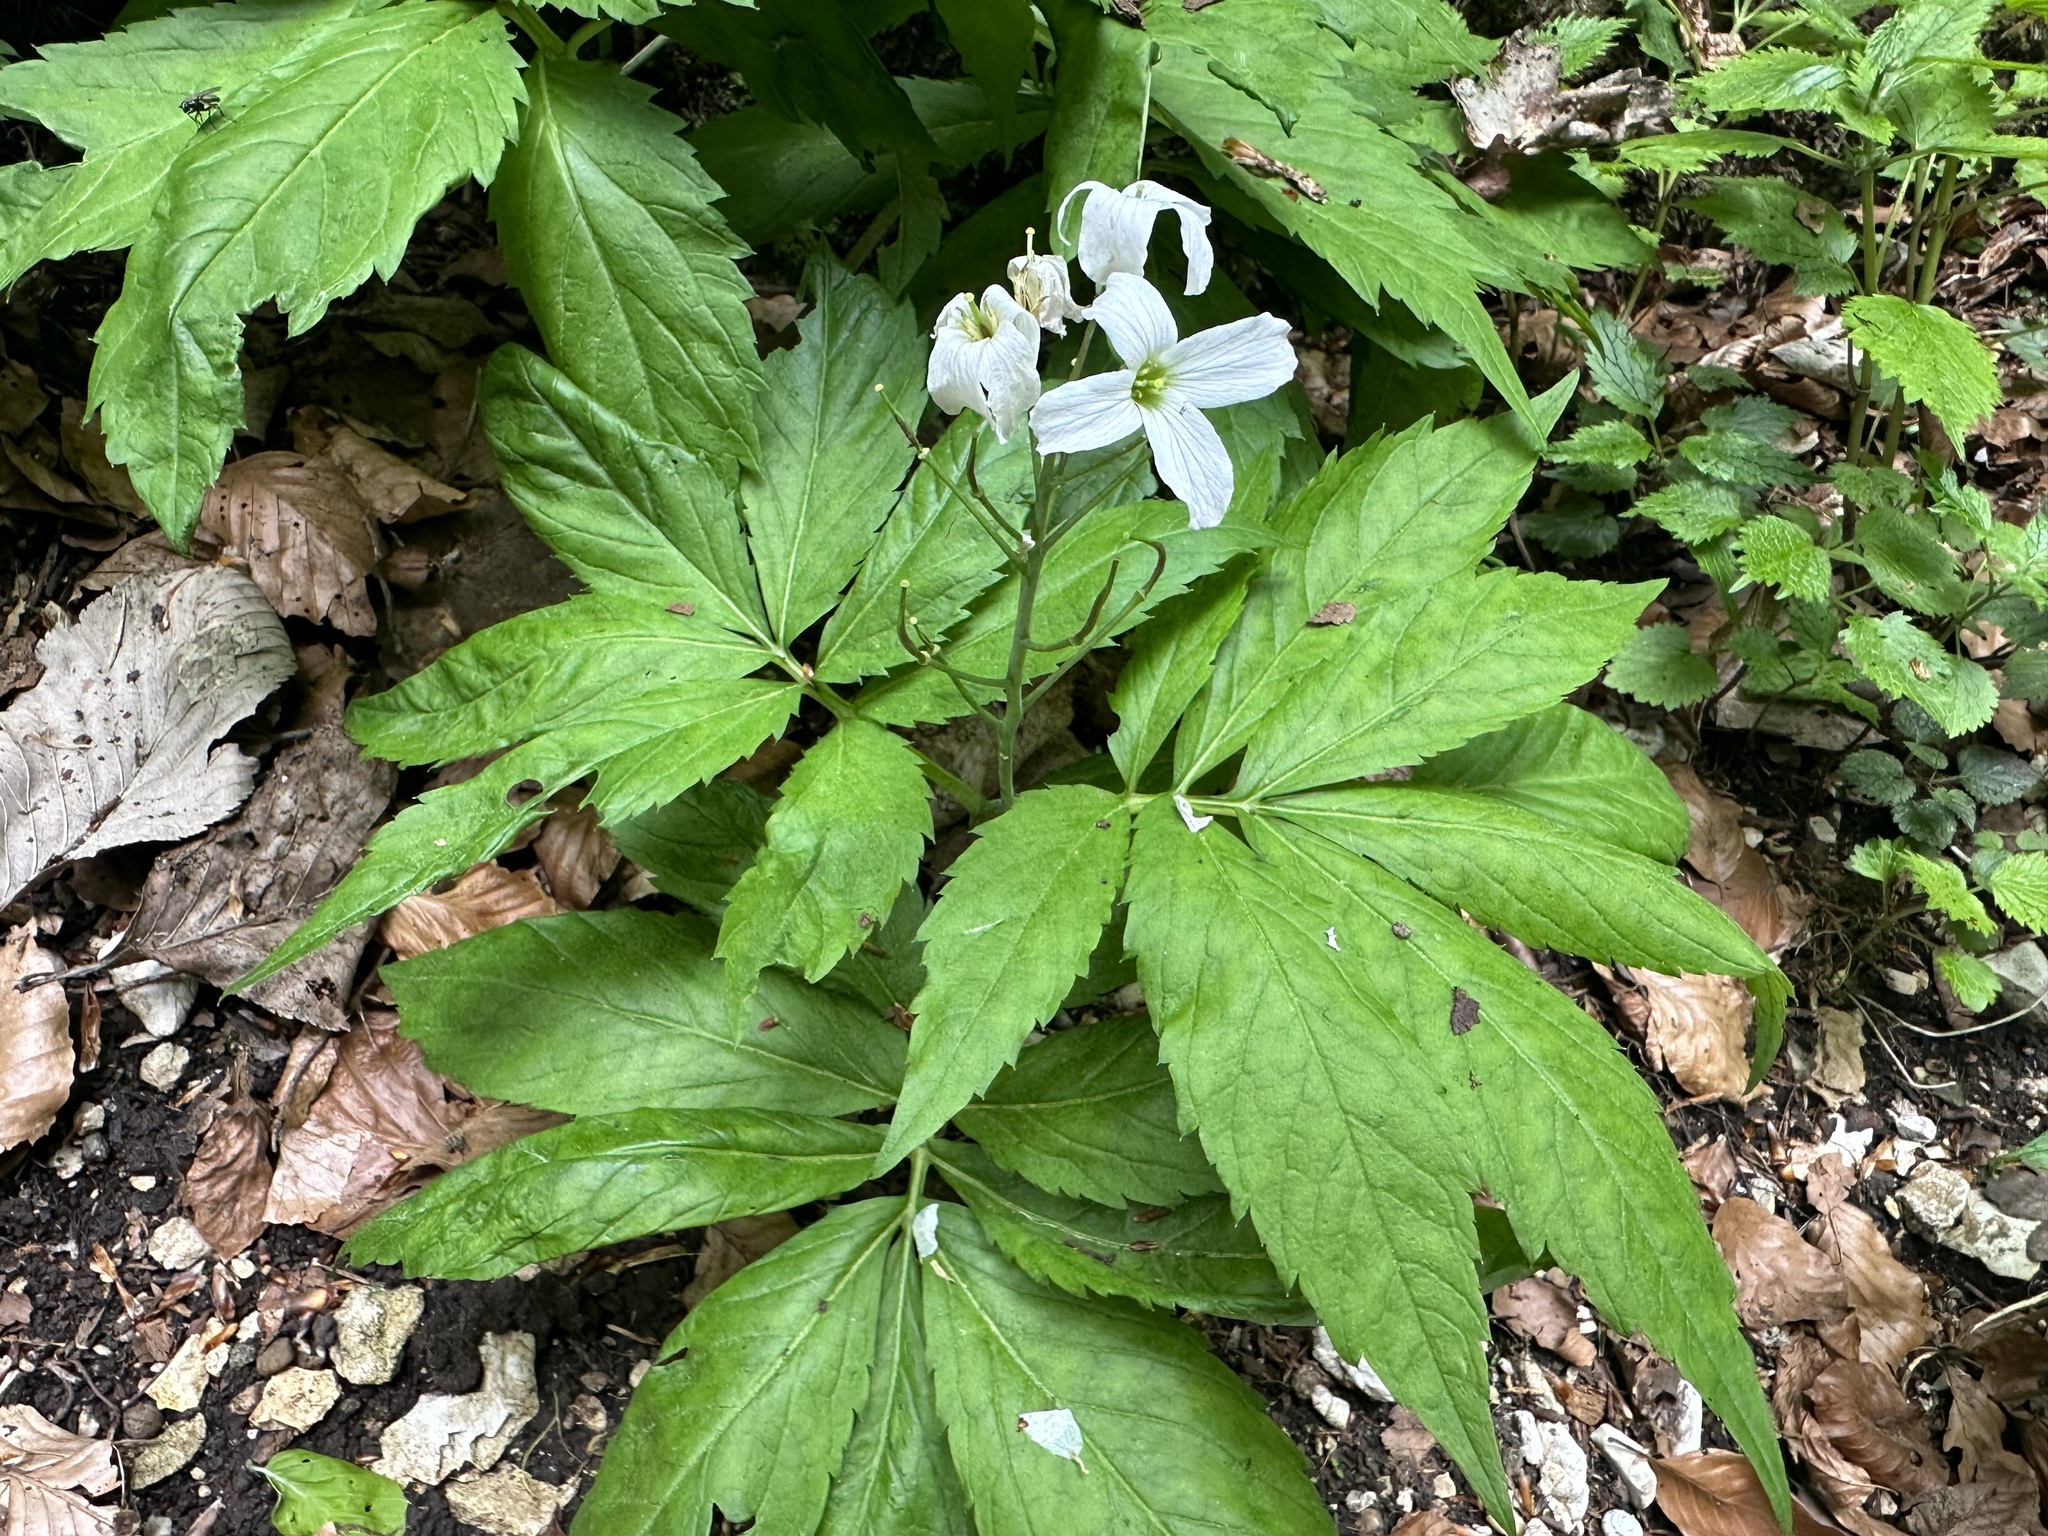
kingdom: Plantae
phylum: Tracheophyta
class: Magnoliopsida
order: Brassicales
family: Brassicaceae
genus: Cardamine
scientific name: Cardamine heptaphylla
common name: Pinnate coralroot
